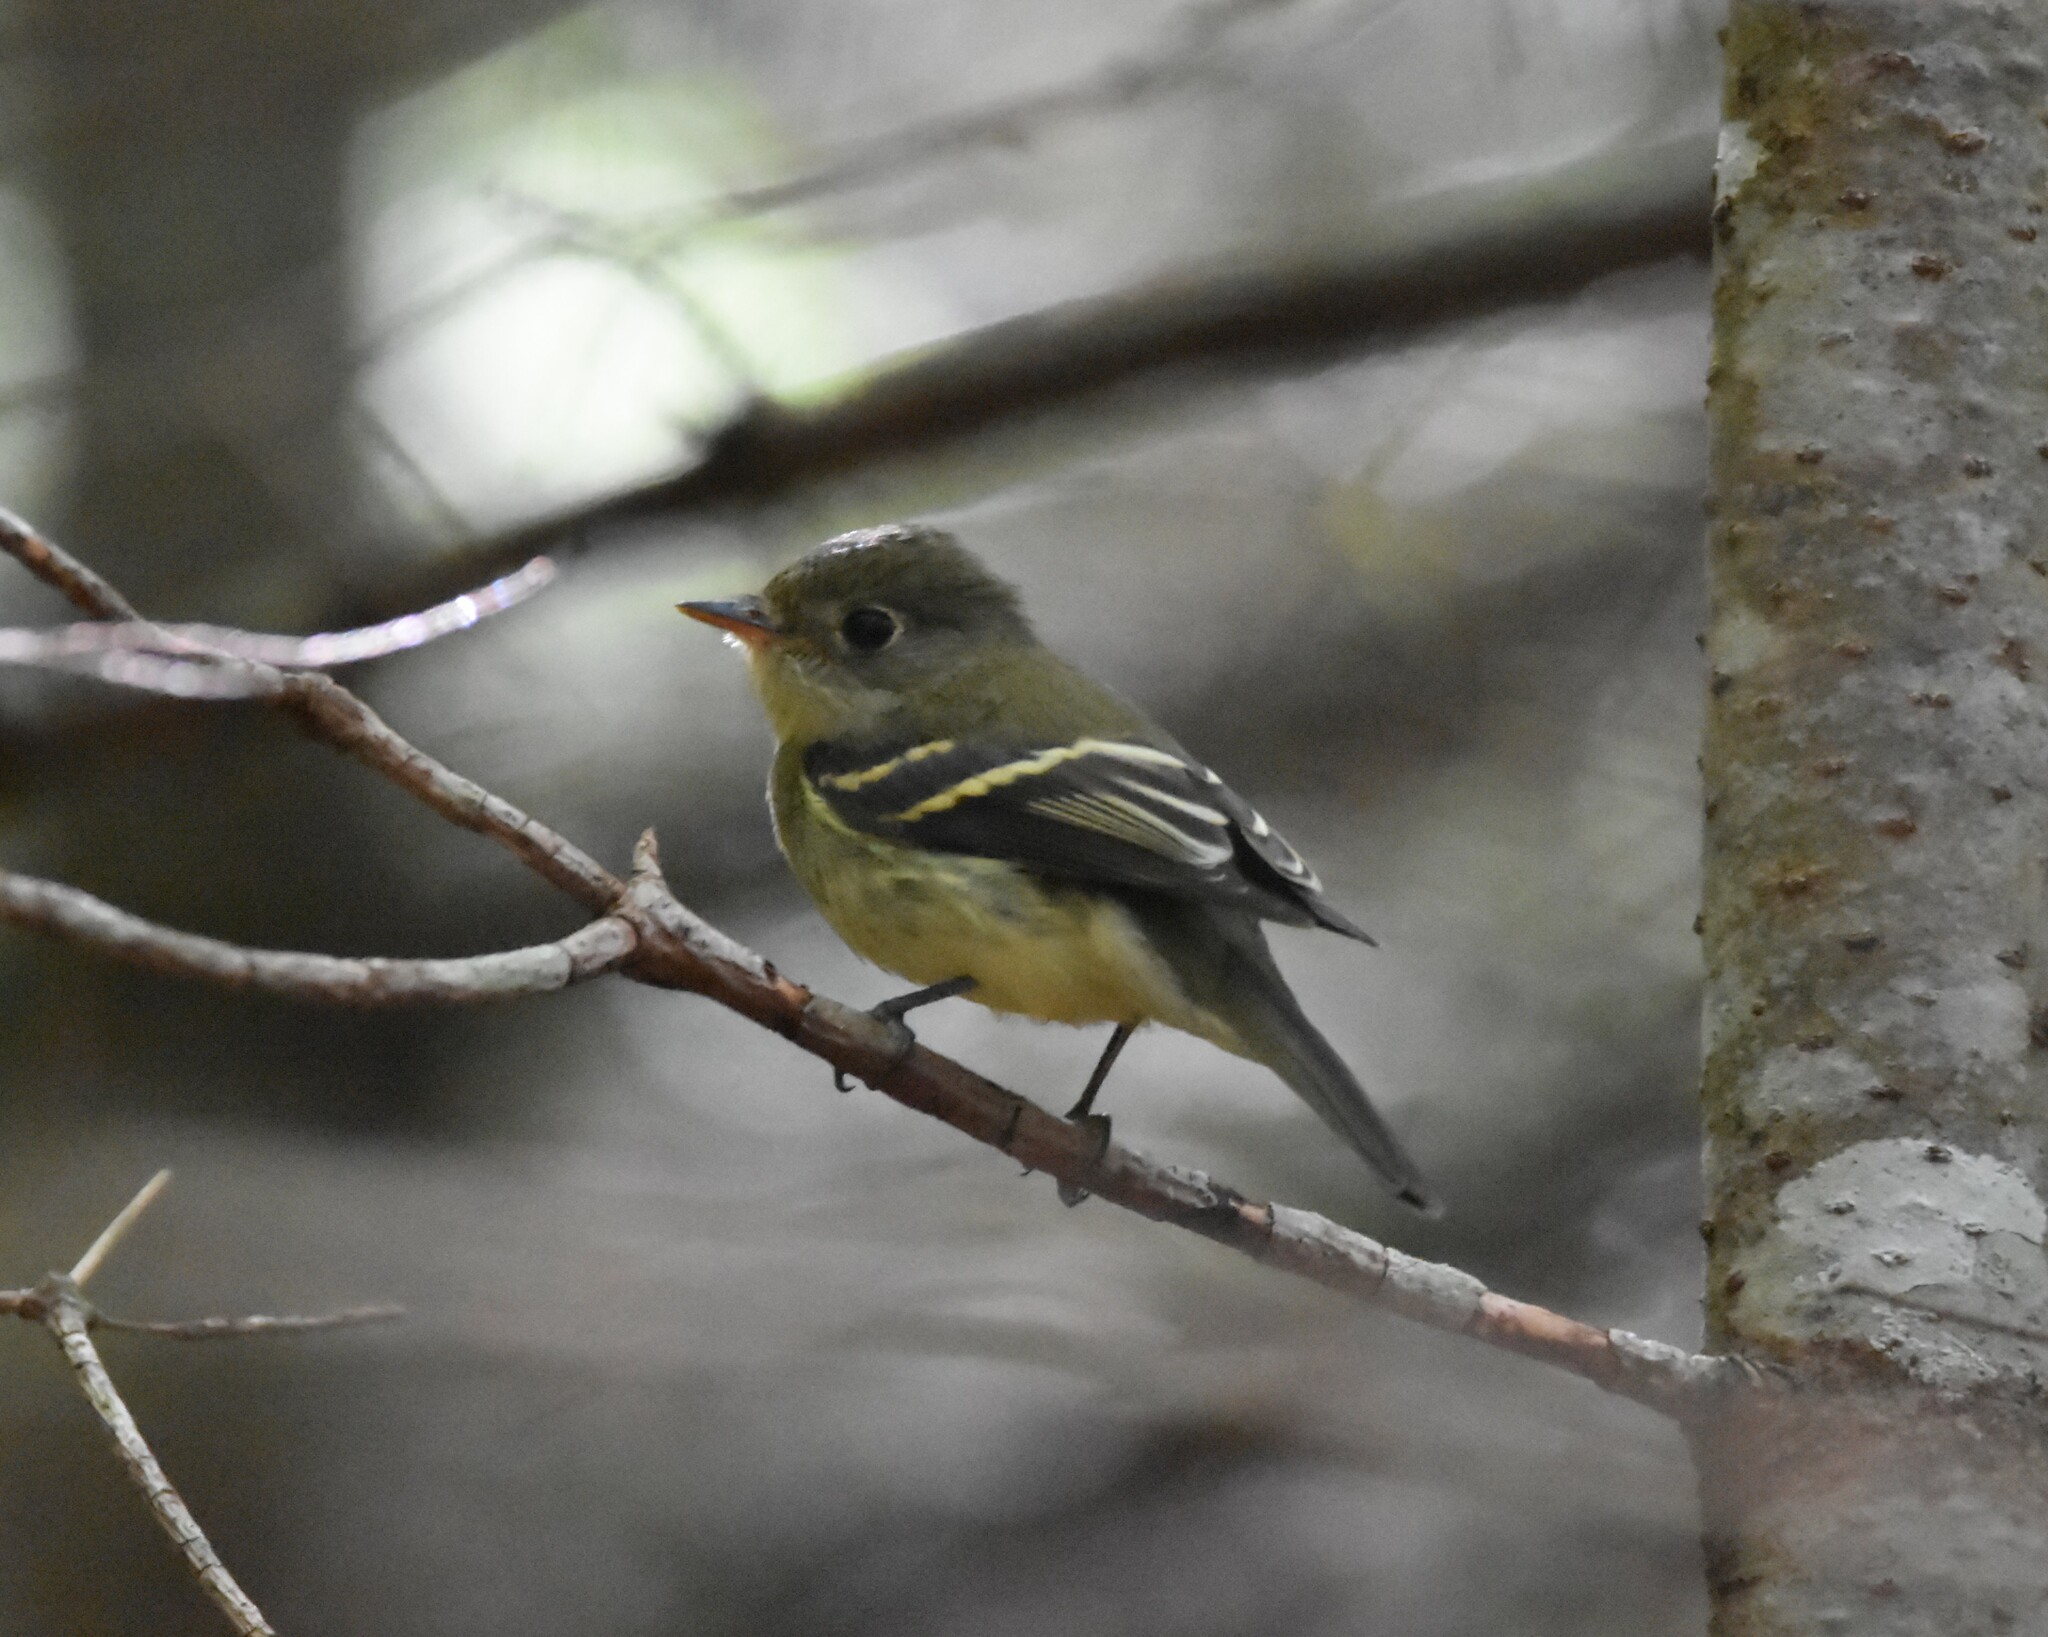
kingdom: Animalia
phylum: Chordata
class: Aves
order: Passeriformes
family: Tyrannidae
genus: Empidonax
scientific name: Empidonax flaviventris
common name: Yellow-bellied flycatcher
